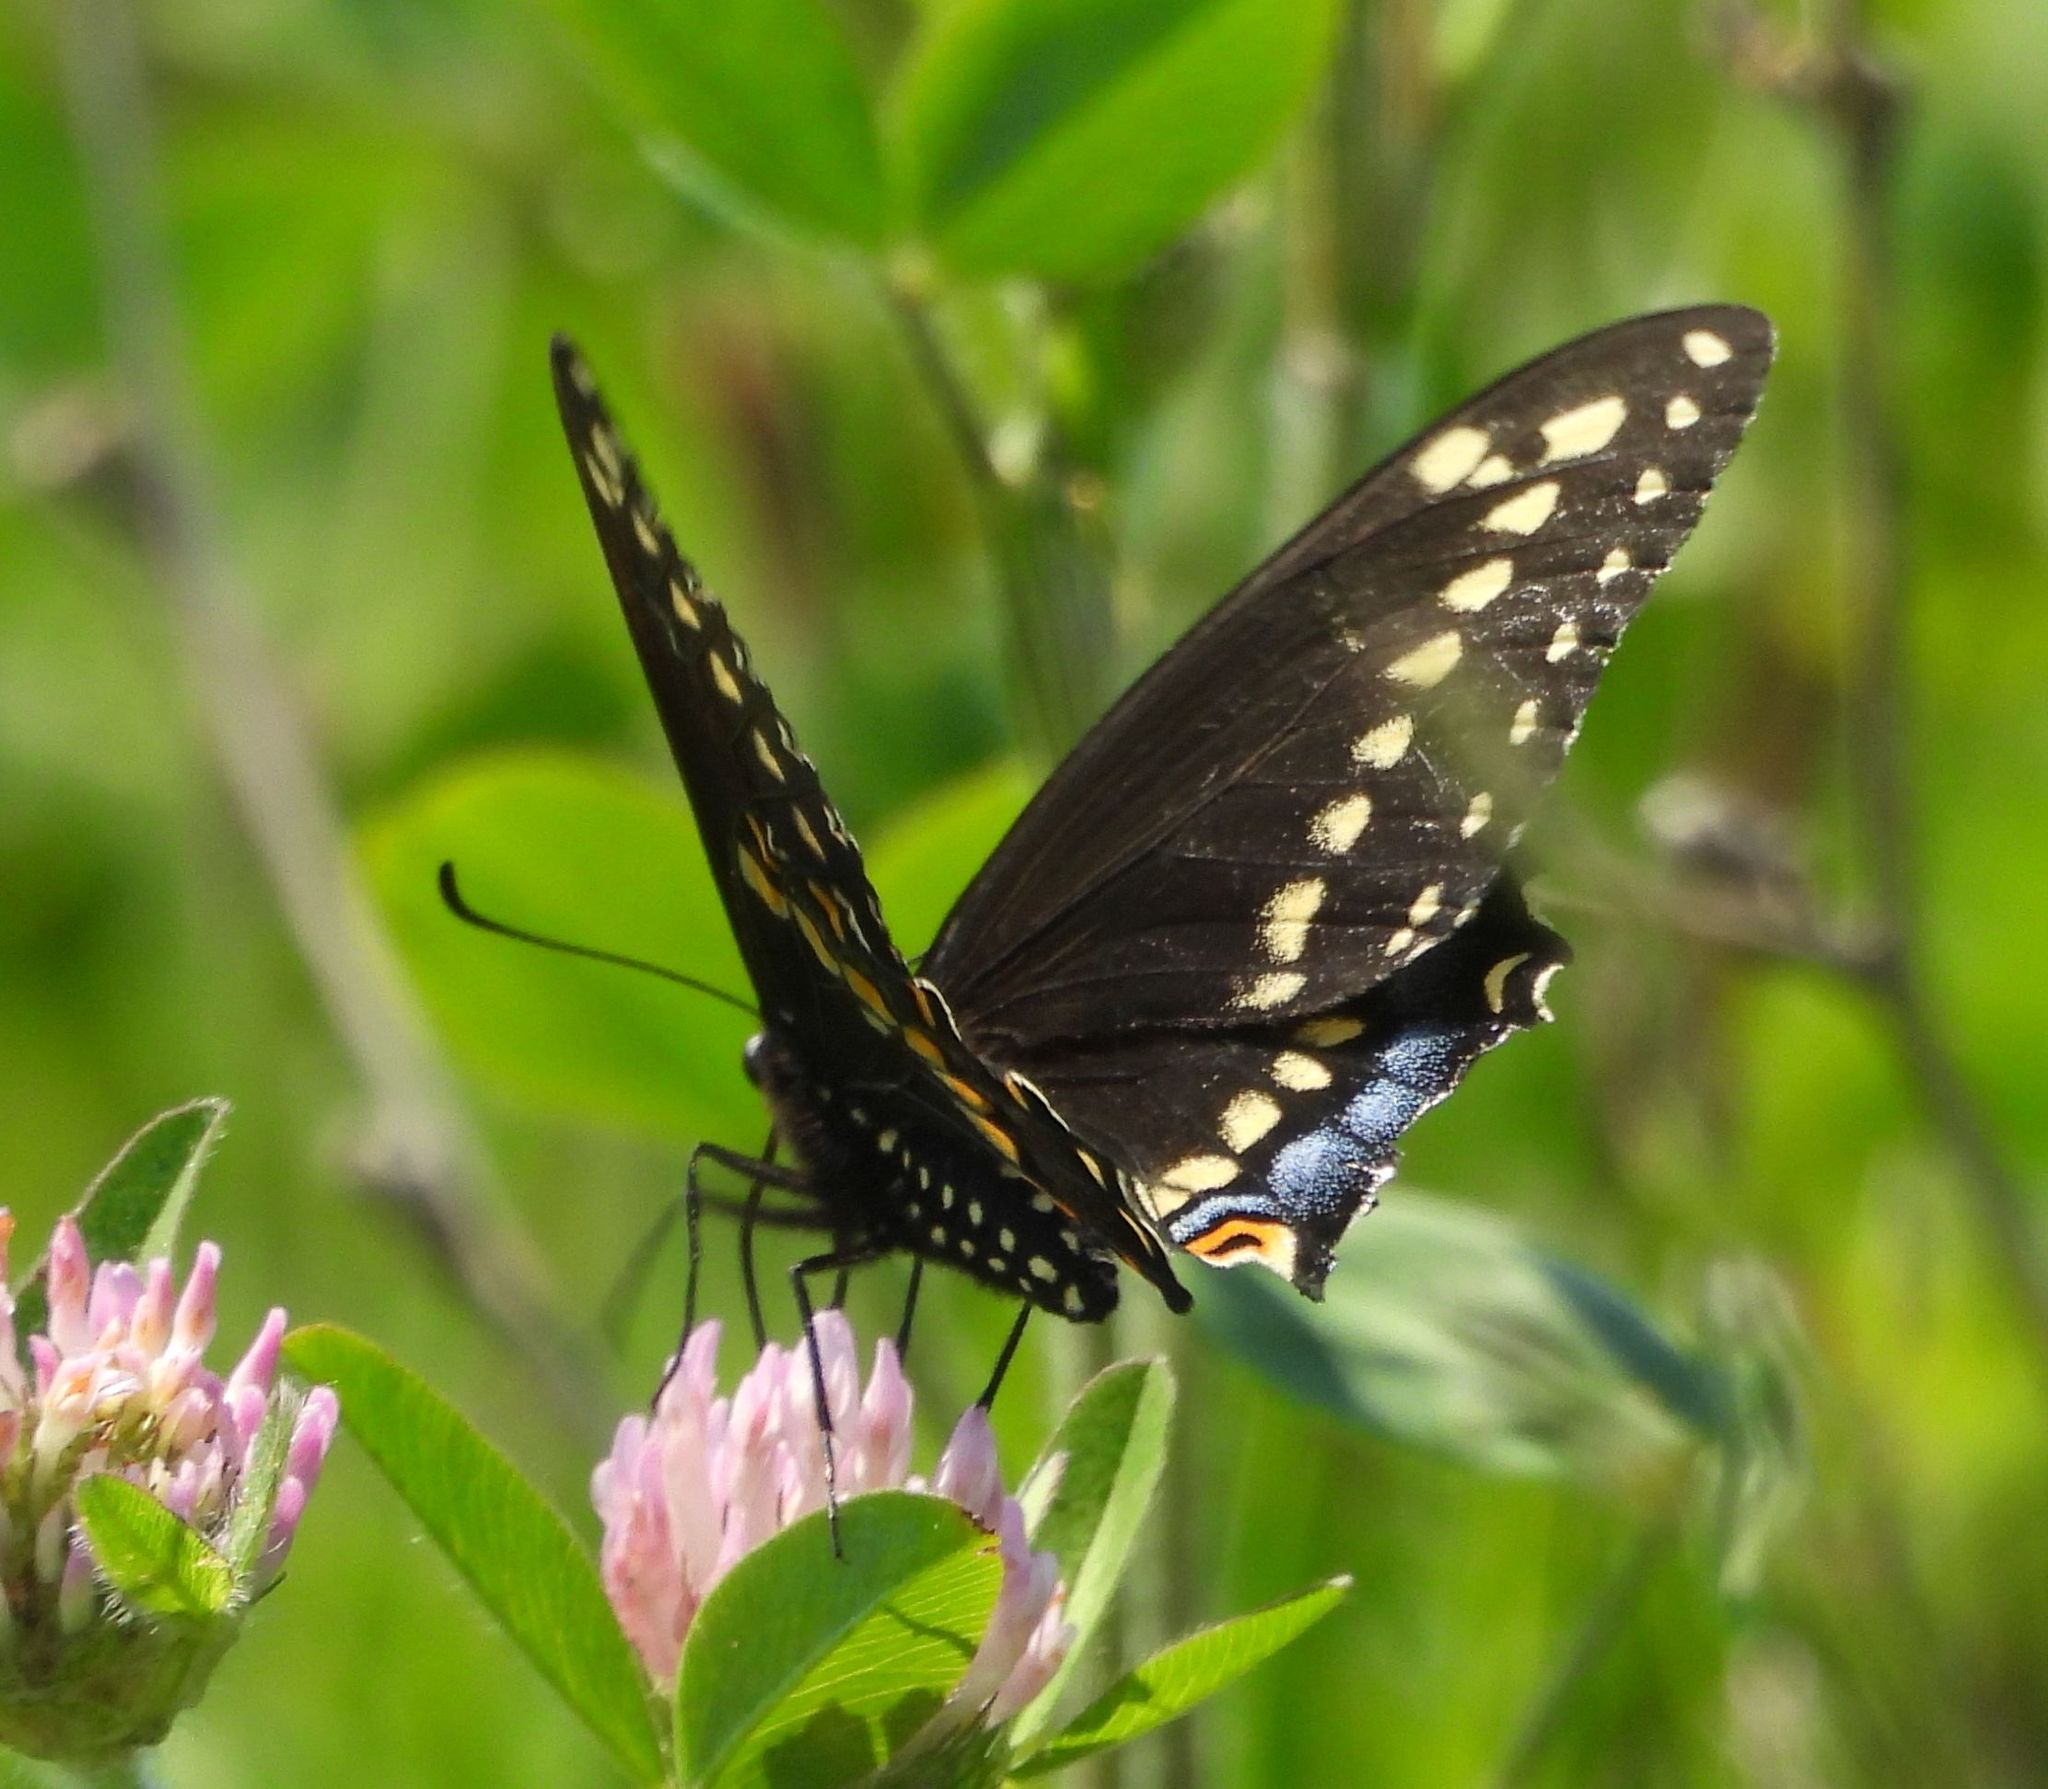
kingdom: Animalia
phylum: Arthropoda
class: Insecta
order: Lepidoptera
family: Papilionidae
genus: Papilio
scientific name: Papilio polyxenes
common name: Black swallowtail
